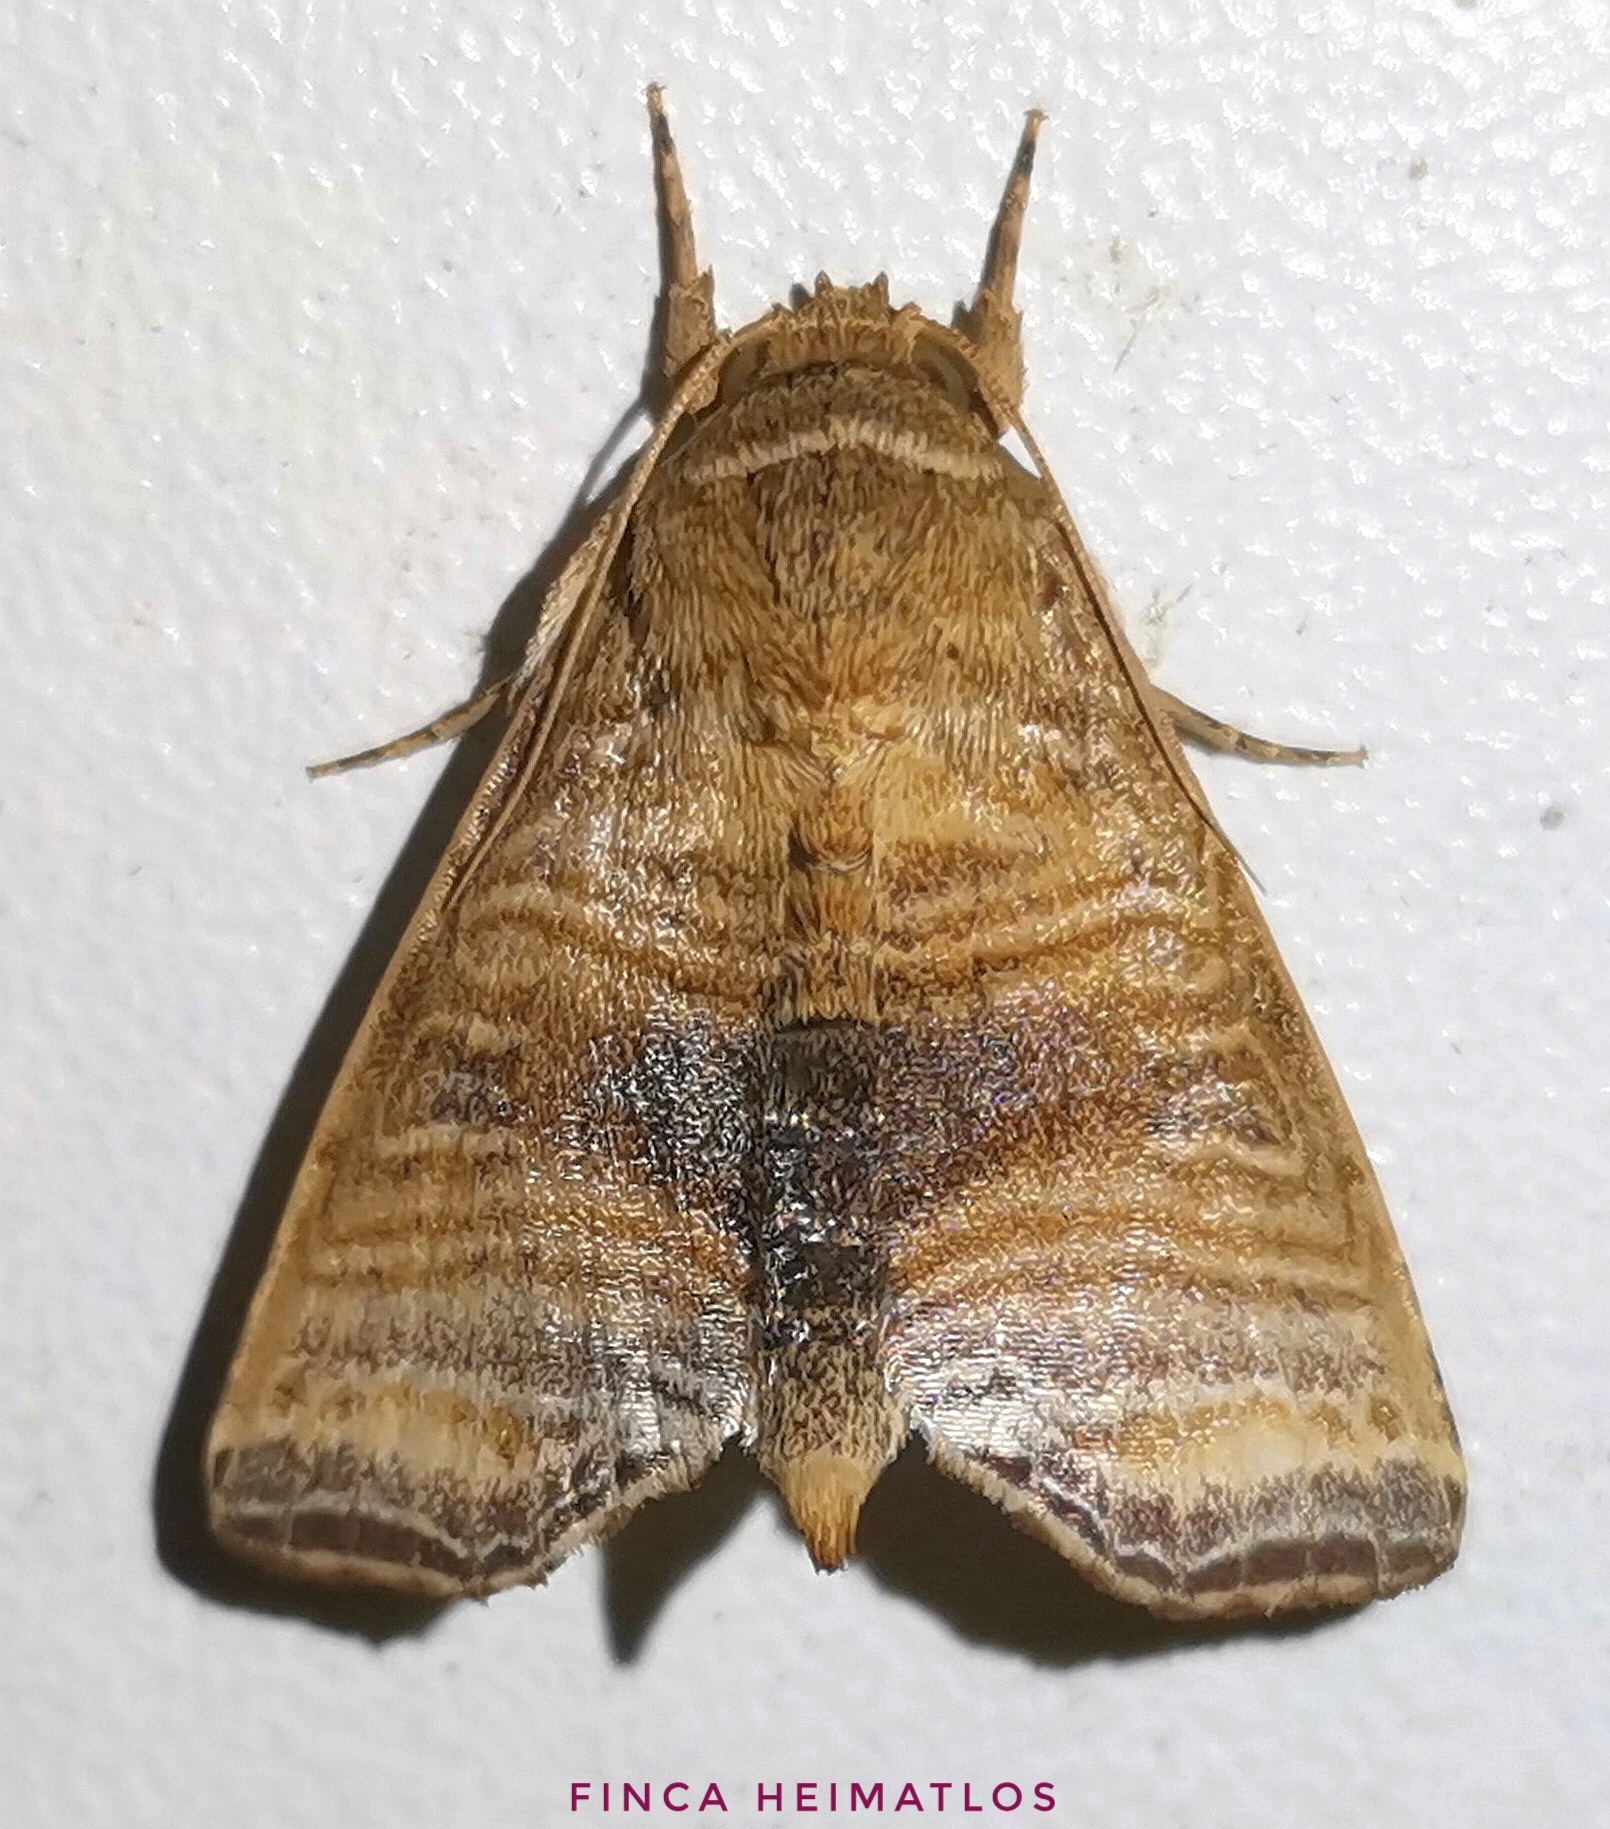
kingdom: Animalia
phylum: Arthropoda
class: Insecta
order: Lepidoptera
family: Noctuidae
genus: Phuphena
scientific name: Phuphena multilinea
